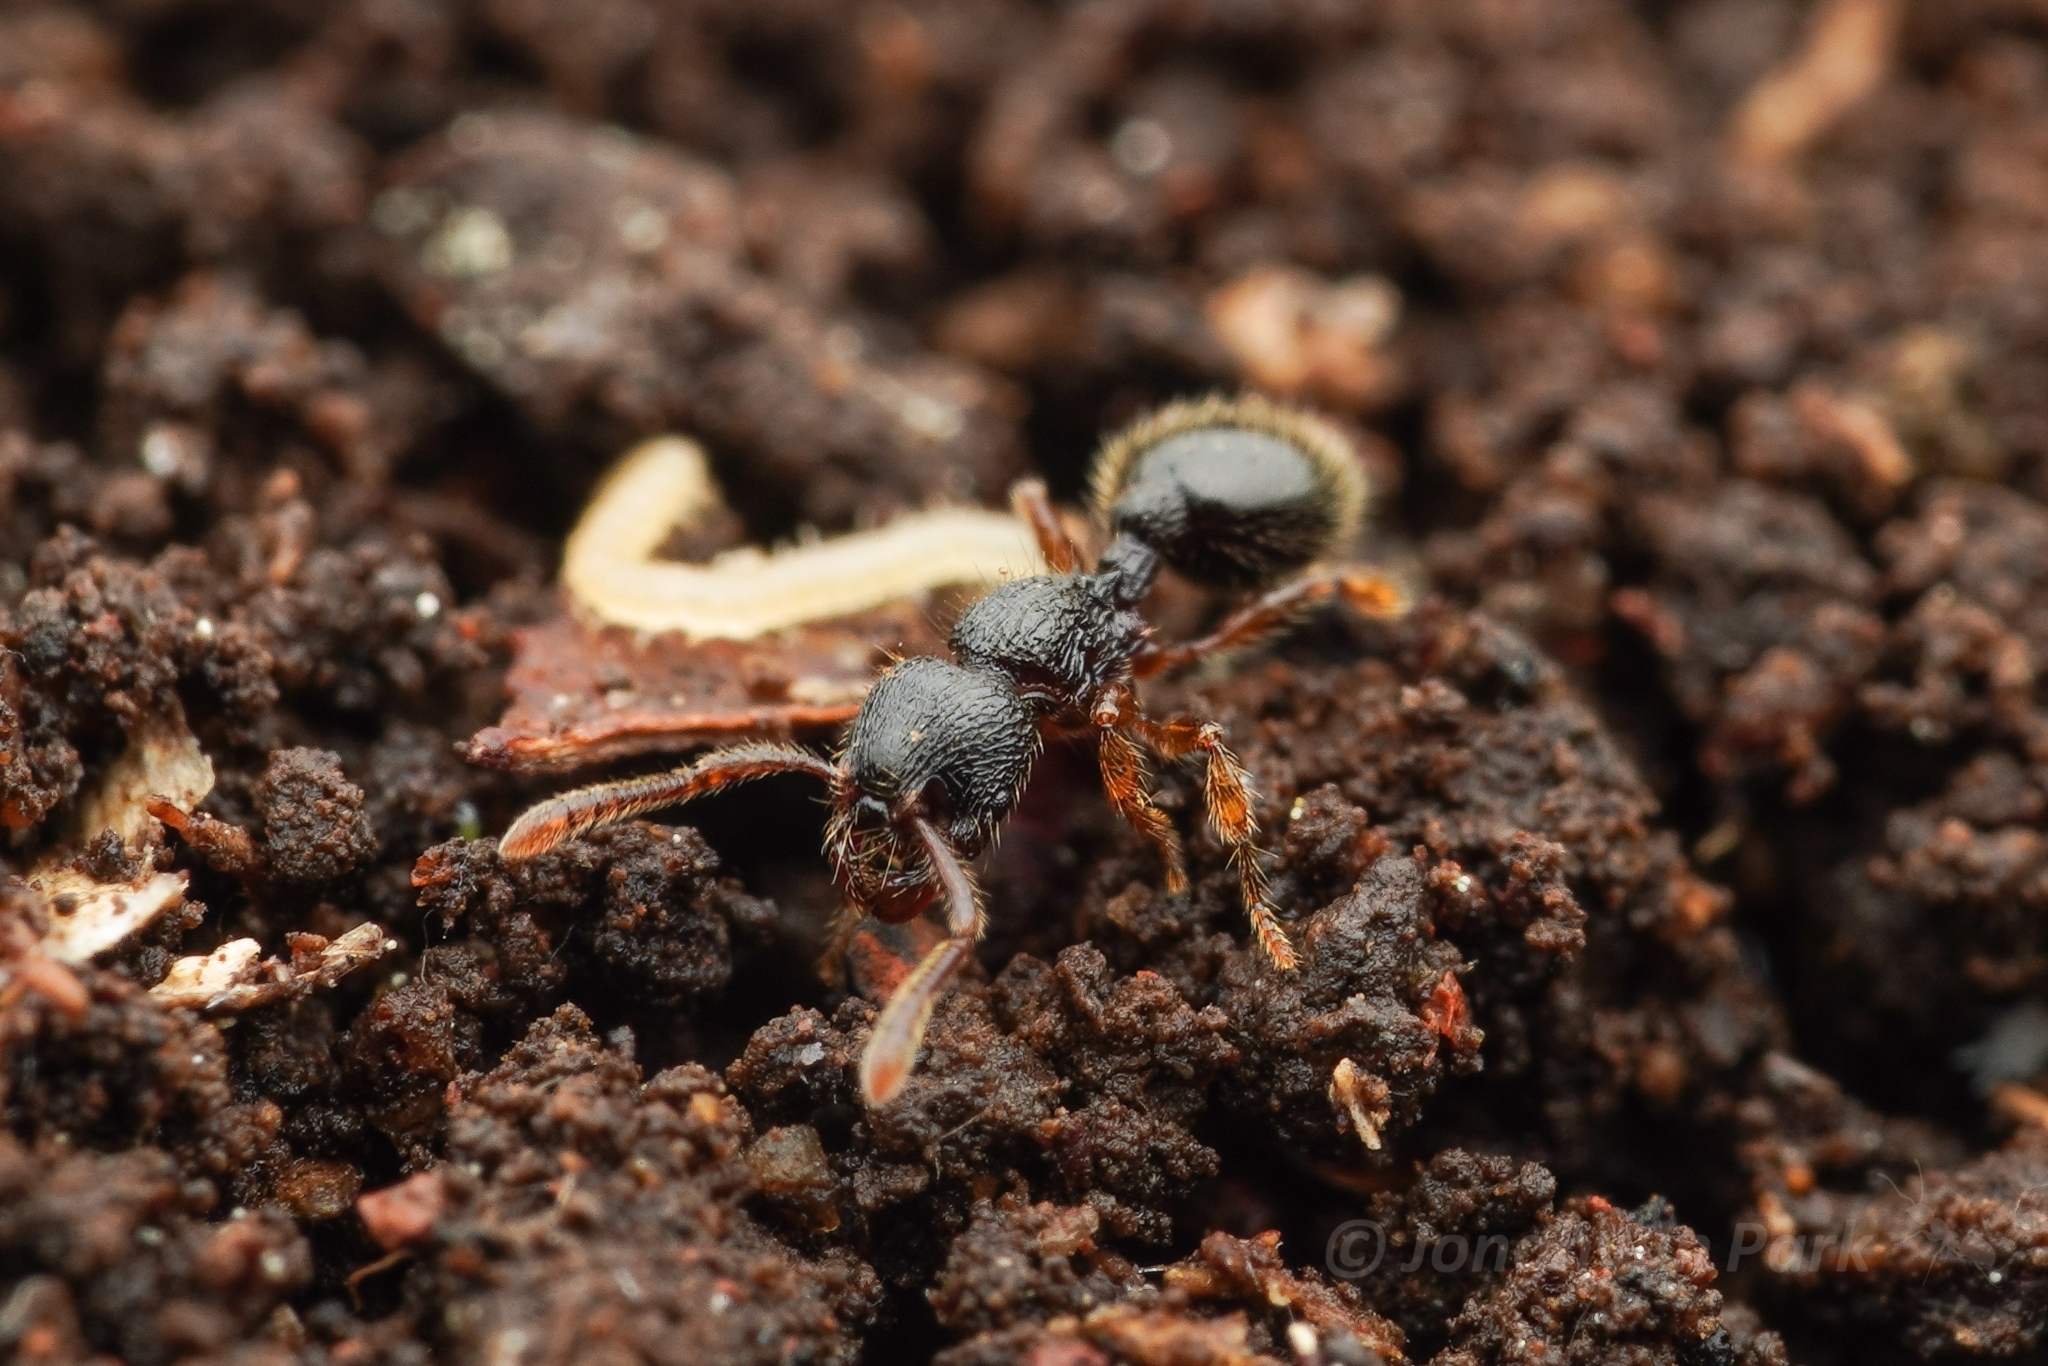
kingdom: Animalia
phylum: Arthropoda
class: Insecta
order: Hymenoptera
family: Formicidae
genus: Myrmecina
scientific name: Myrmecina nipponica
